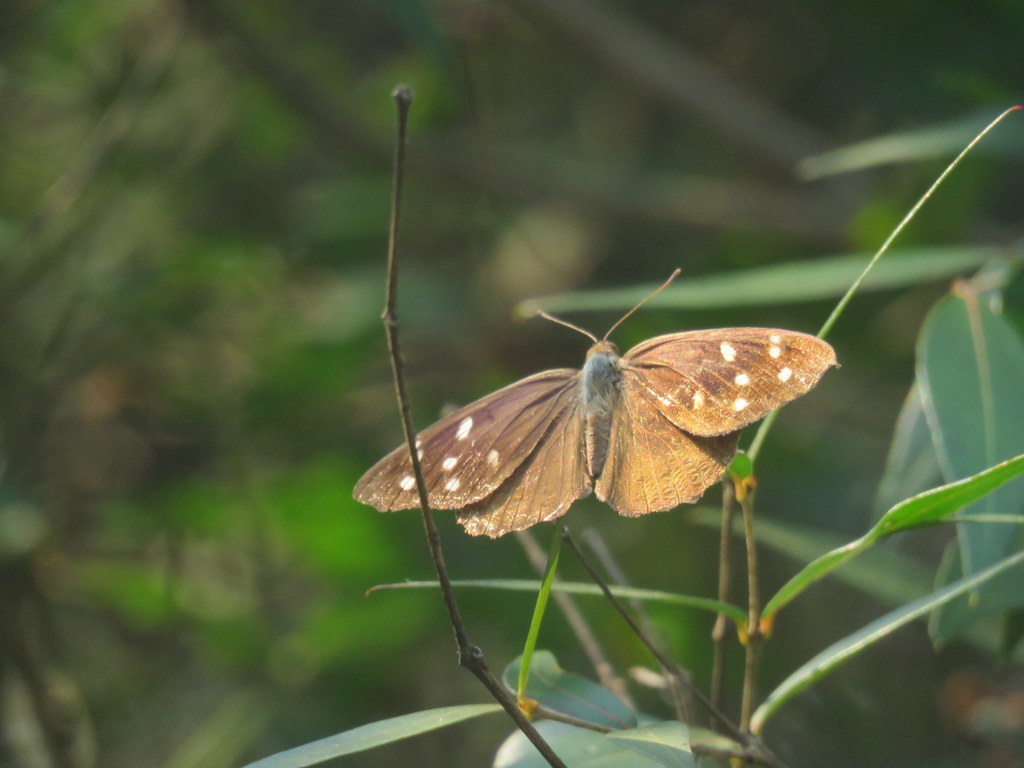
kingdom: Animalia
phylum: Arthropoda
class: Insecta
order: Lepidoptera
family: Nymphalidae
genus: Eunica
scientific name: Eunica tatila
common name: Florida purplewing
